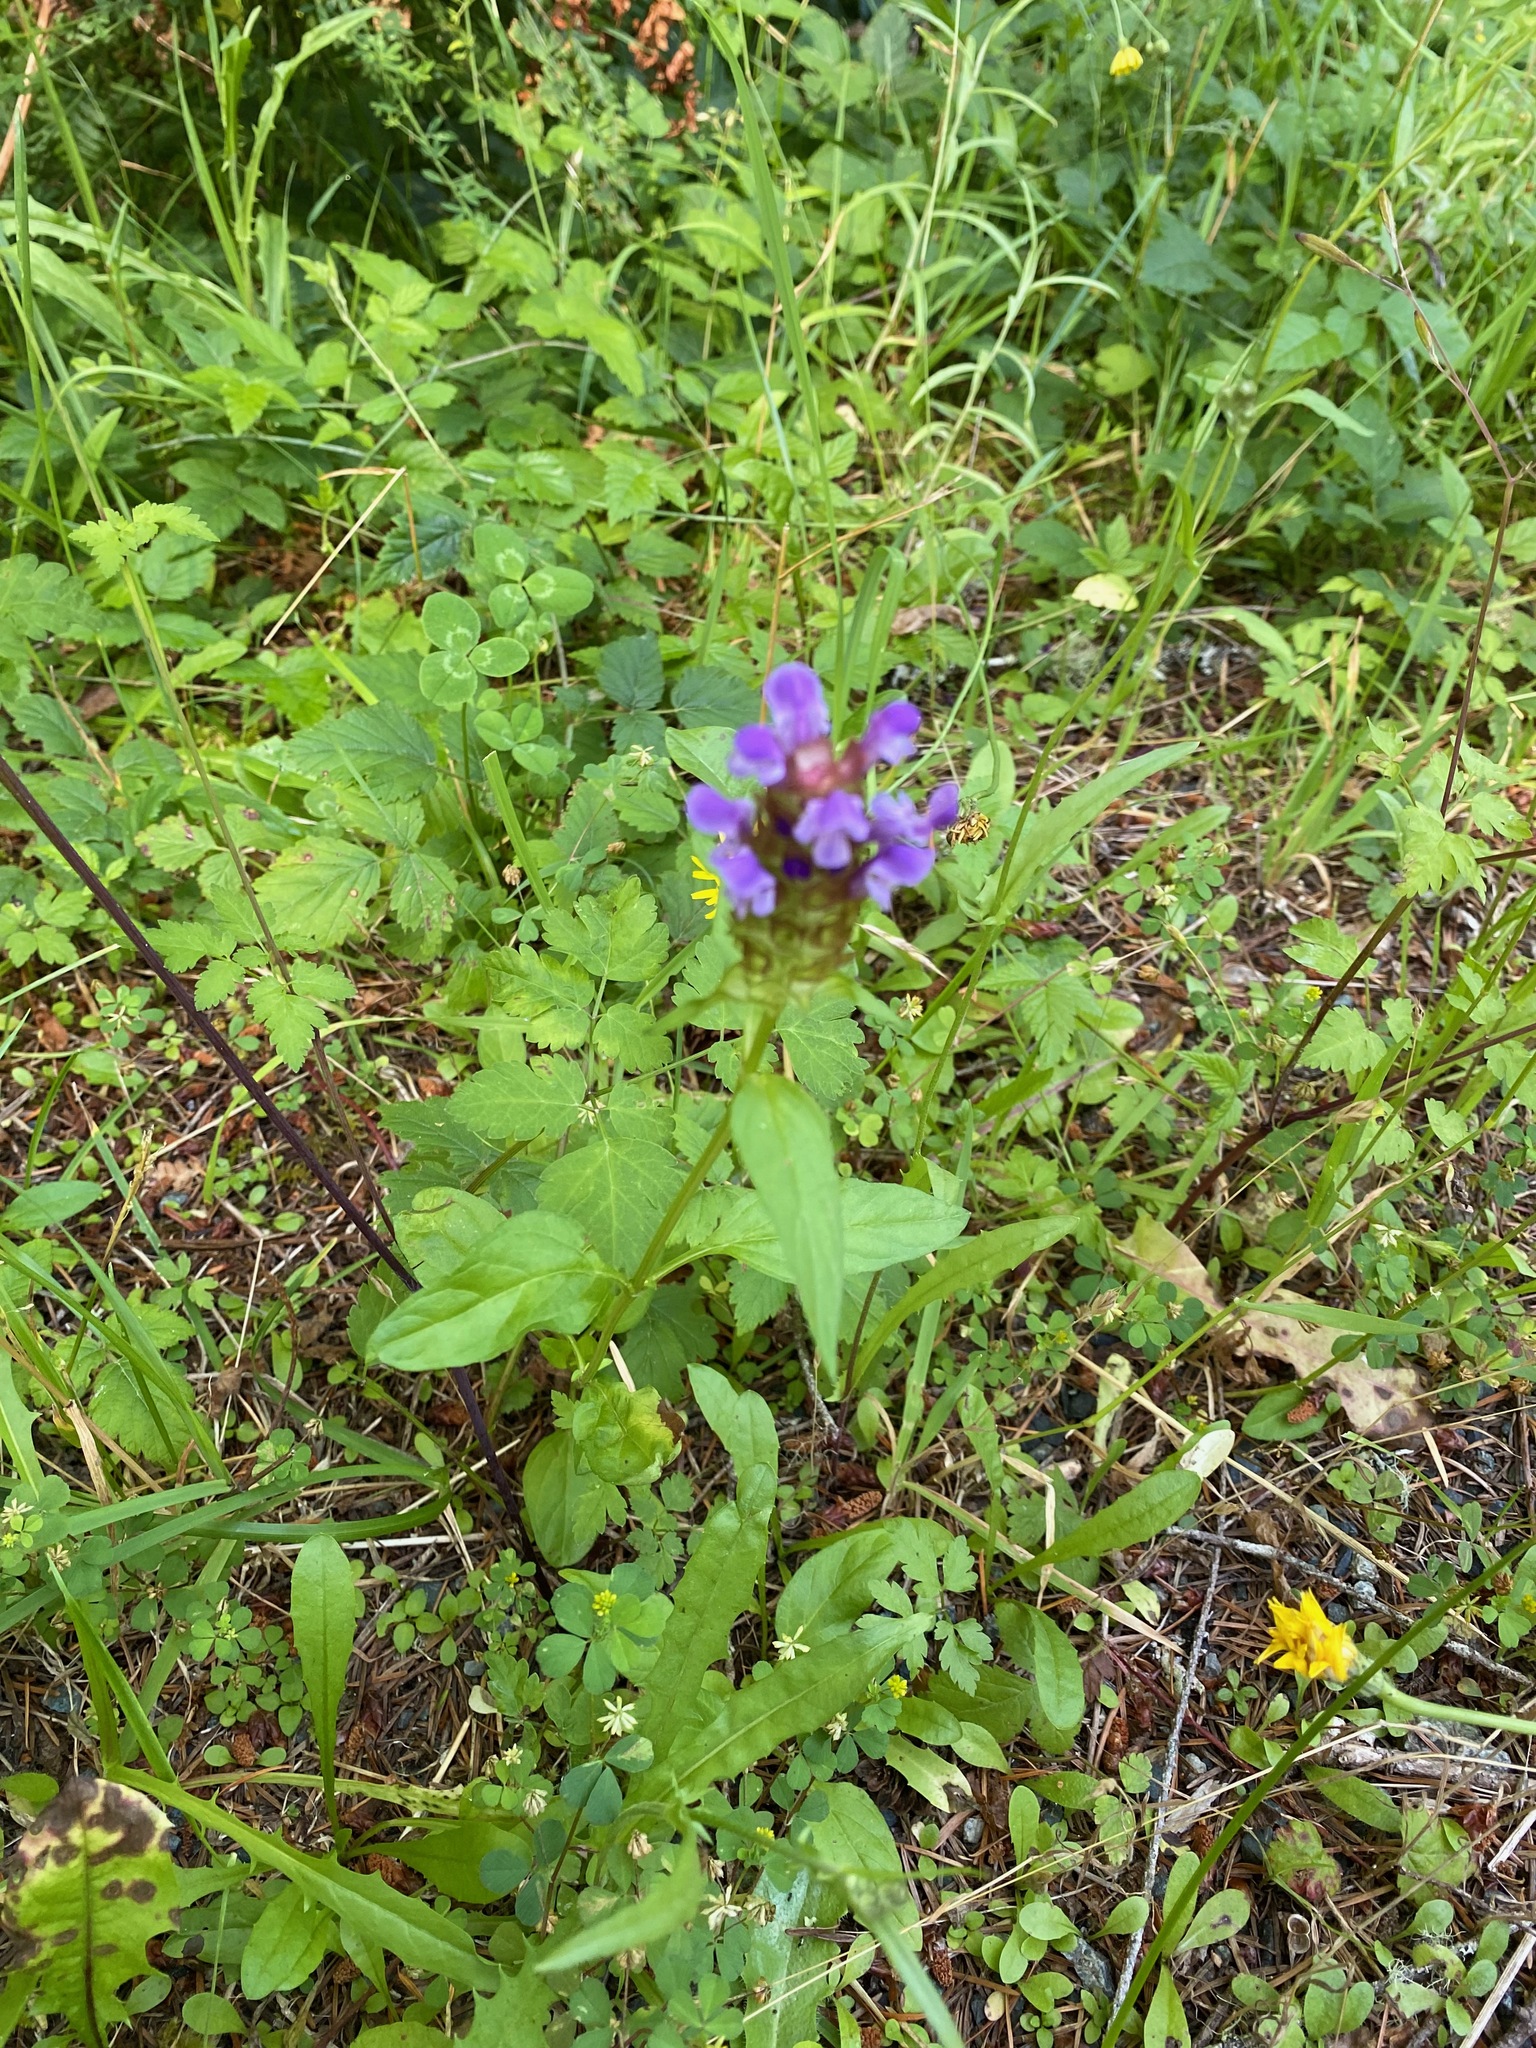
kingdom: Plantae
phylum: Tracheophyta
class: Magnoliopsida
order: Lamiales
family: Lamiaceae
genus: Prunella
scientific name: Prunella vulgaris
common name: Heal-all
